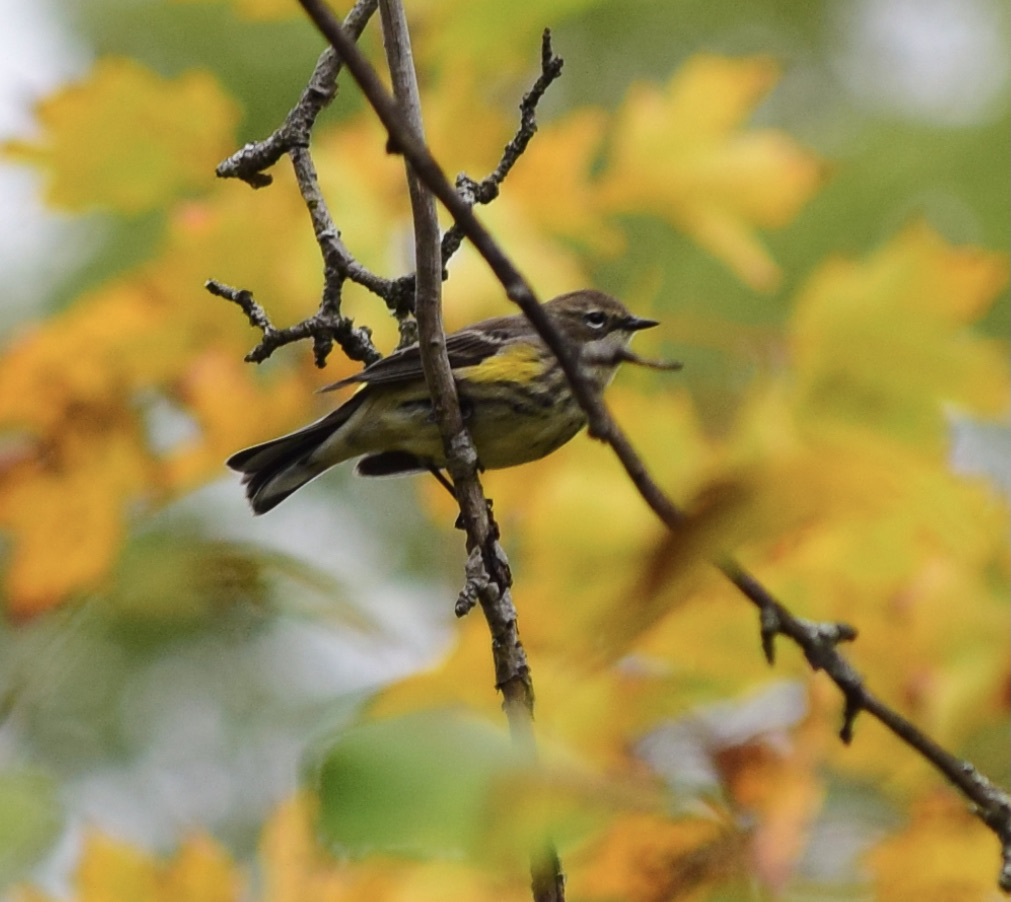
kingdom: Animalia
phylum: Chordata
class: Aves
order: Passeriformes
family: Parulidae
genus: Setophaga
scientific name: Setophaga coronata
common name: Myrtle warbler
